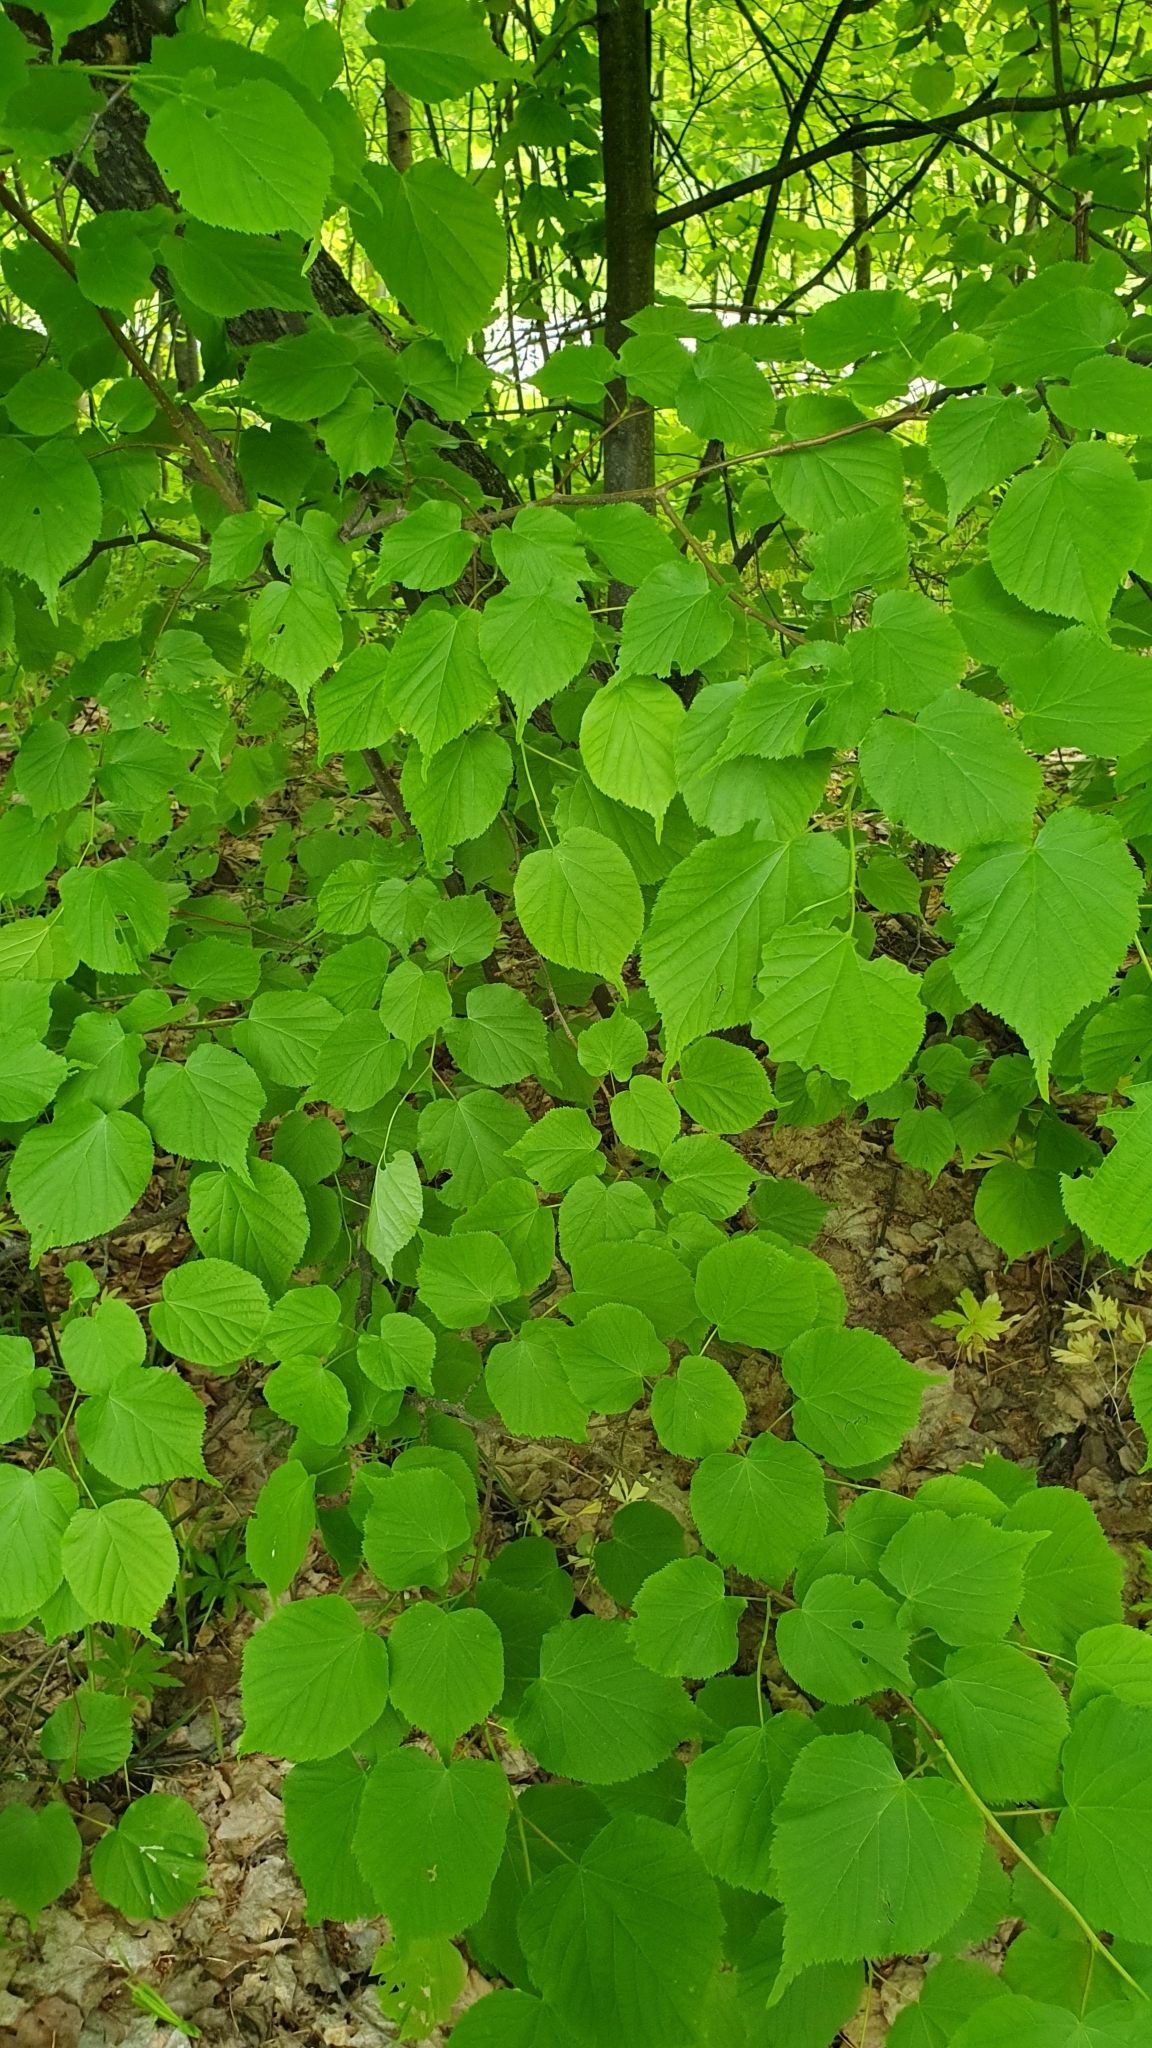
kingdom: Plantae
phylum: Tracheophyta
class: Magnoliopsida
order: Malvales
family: Malvaceae
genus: Tilia
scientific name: Tilia cordata
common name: Small-leaved lime
